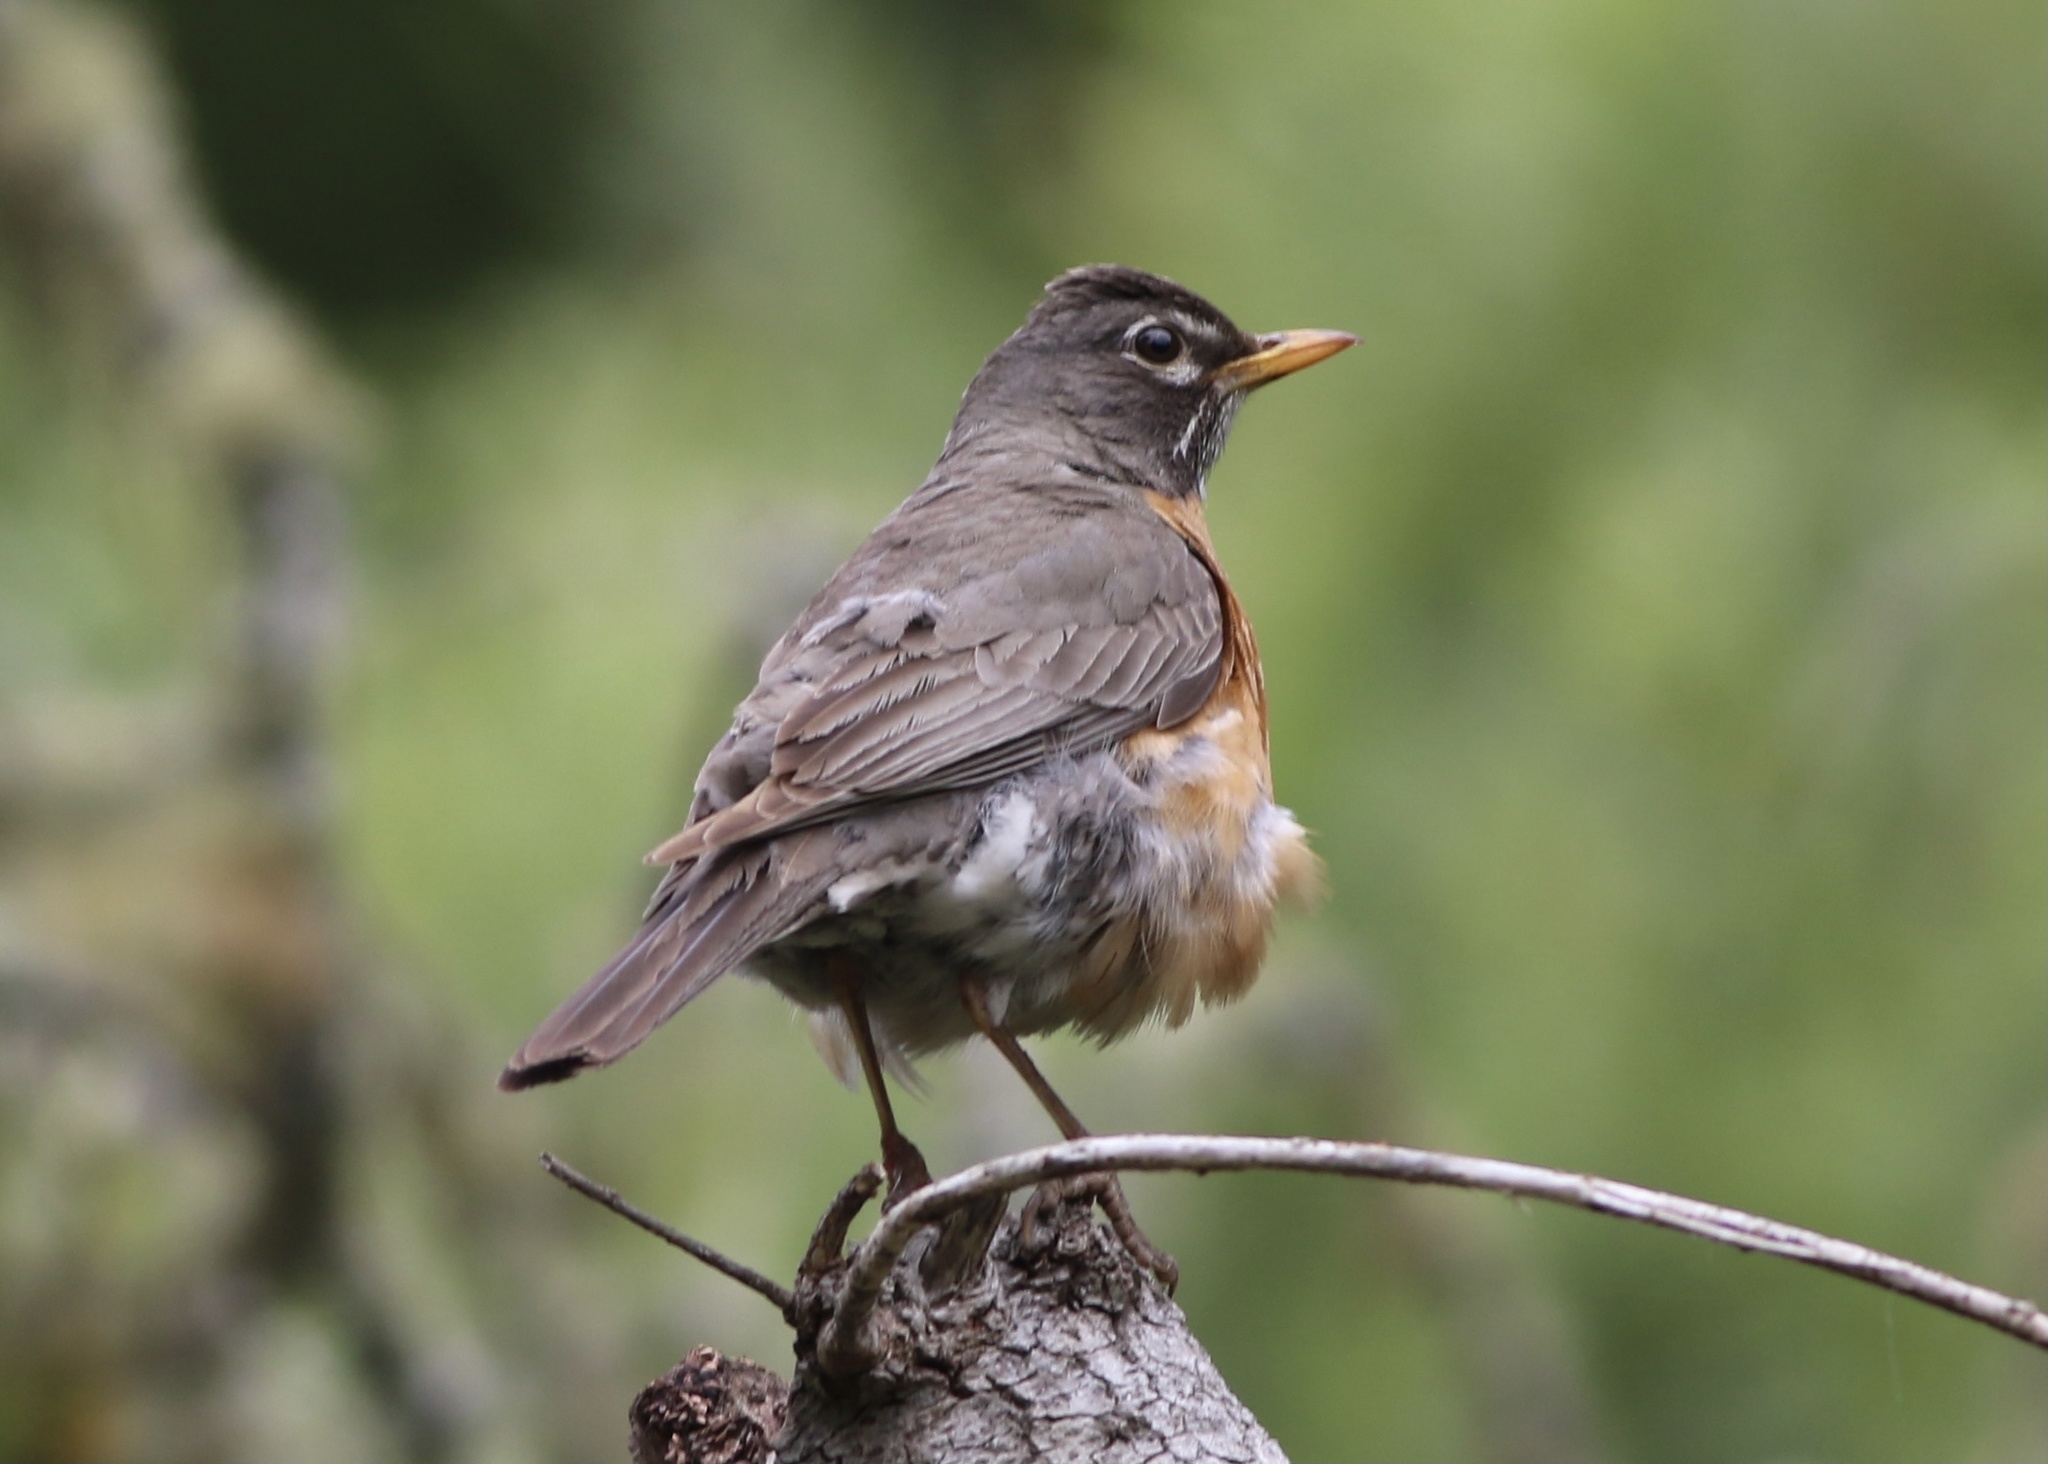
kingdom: Animalia
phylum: Chordata
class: Aves
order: Passeriformes
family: Turdidae
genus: Turdus
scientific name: Turdus migratorius
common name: American robin
